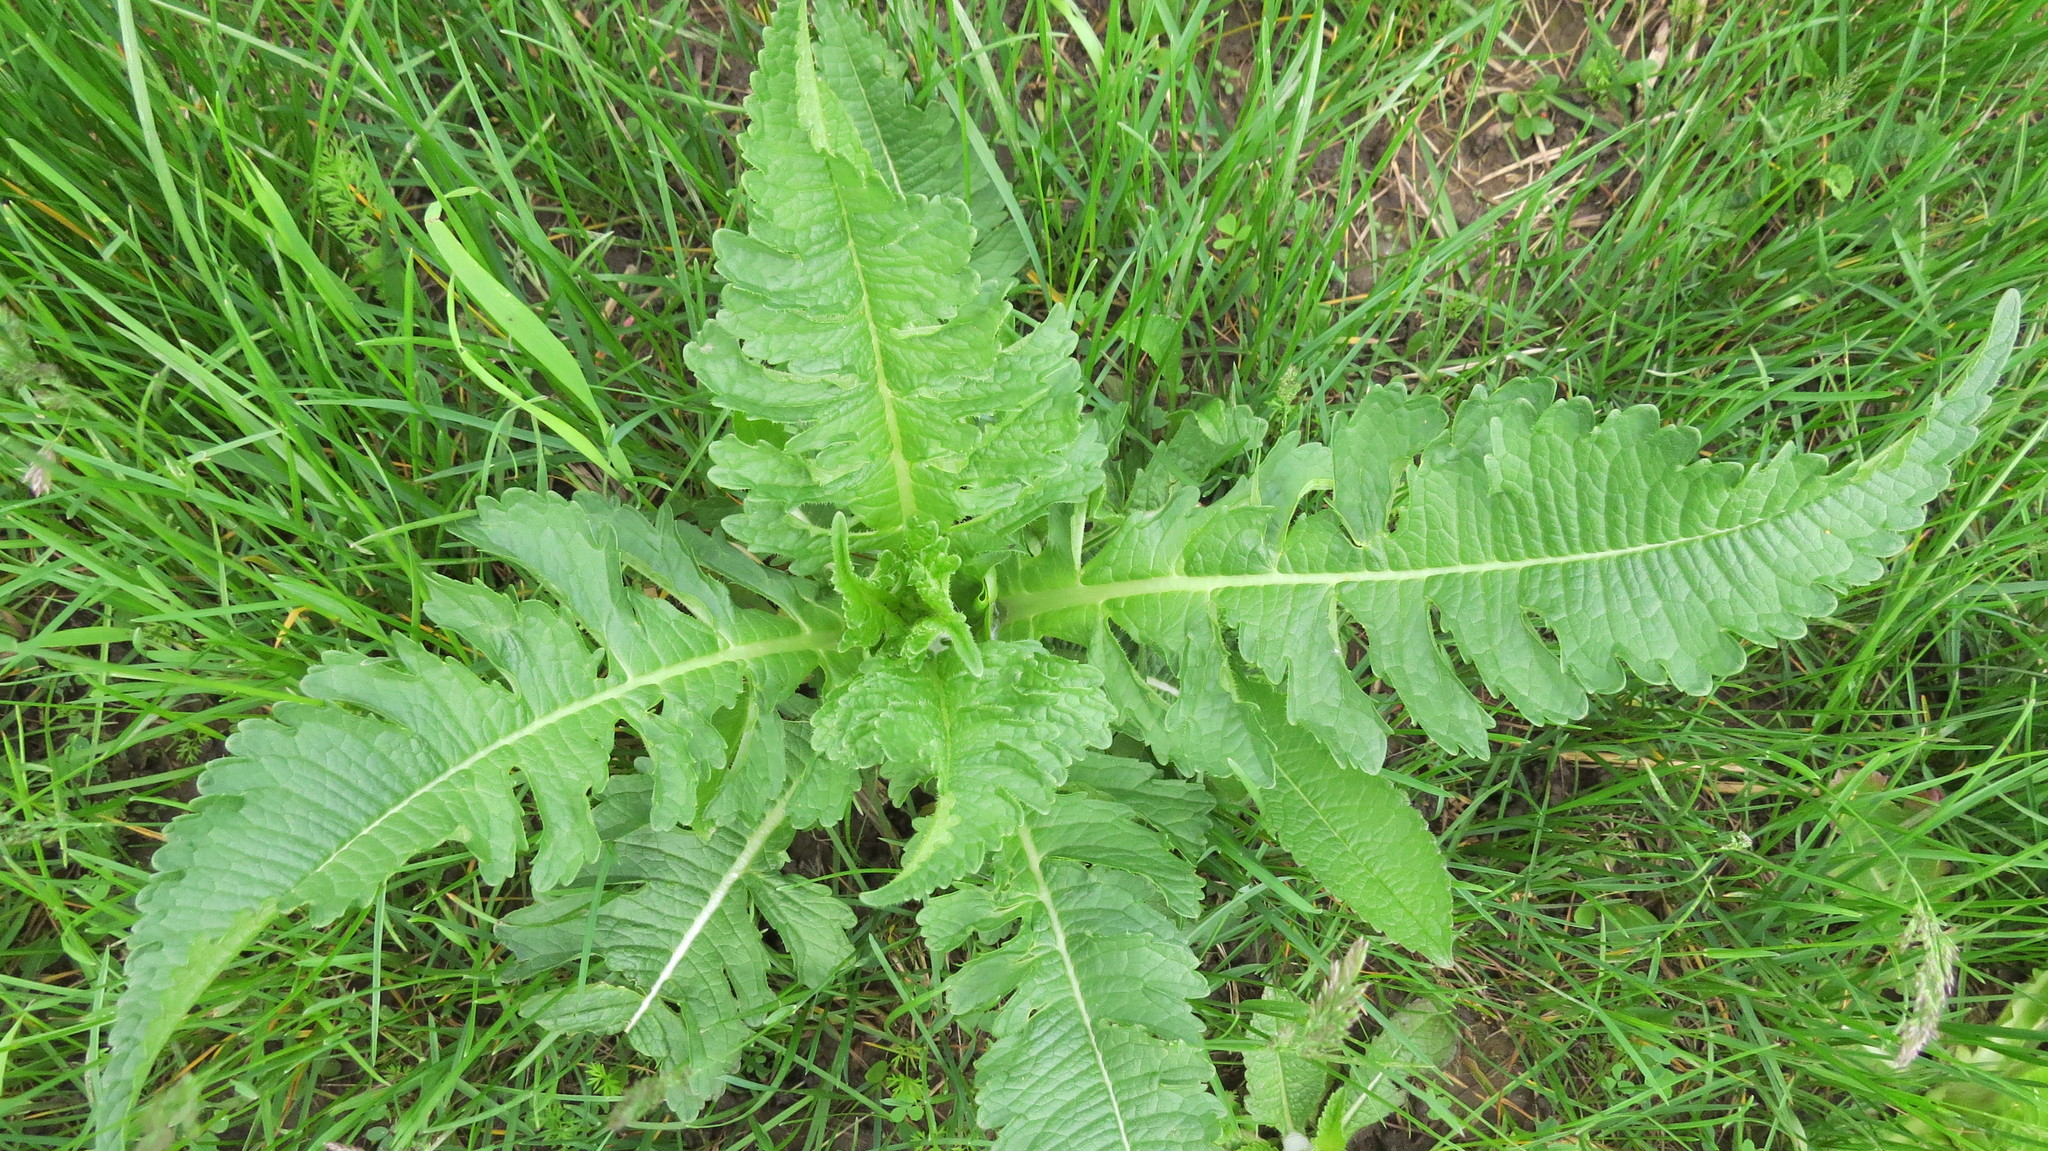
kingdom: Plantae
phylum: Tracheophyta
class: Magnoliopsida
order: Dipsacales
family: Caprifoliaceae
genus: Dipsacus
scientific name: Dipsacus laciniatus
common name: Cut-leaved teasel
